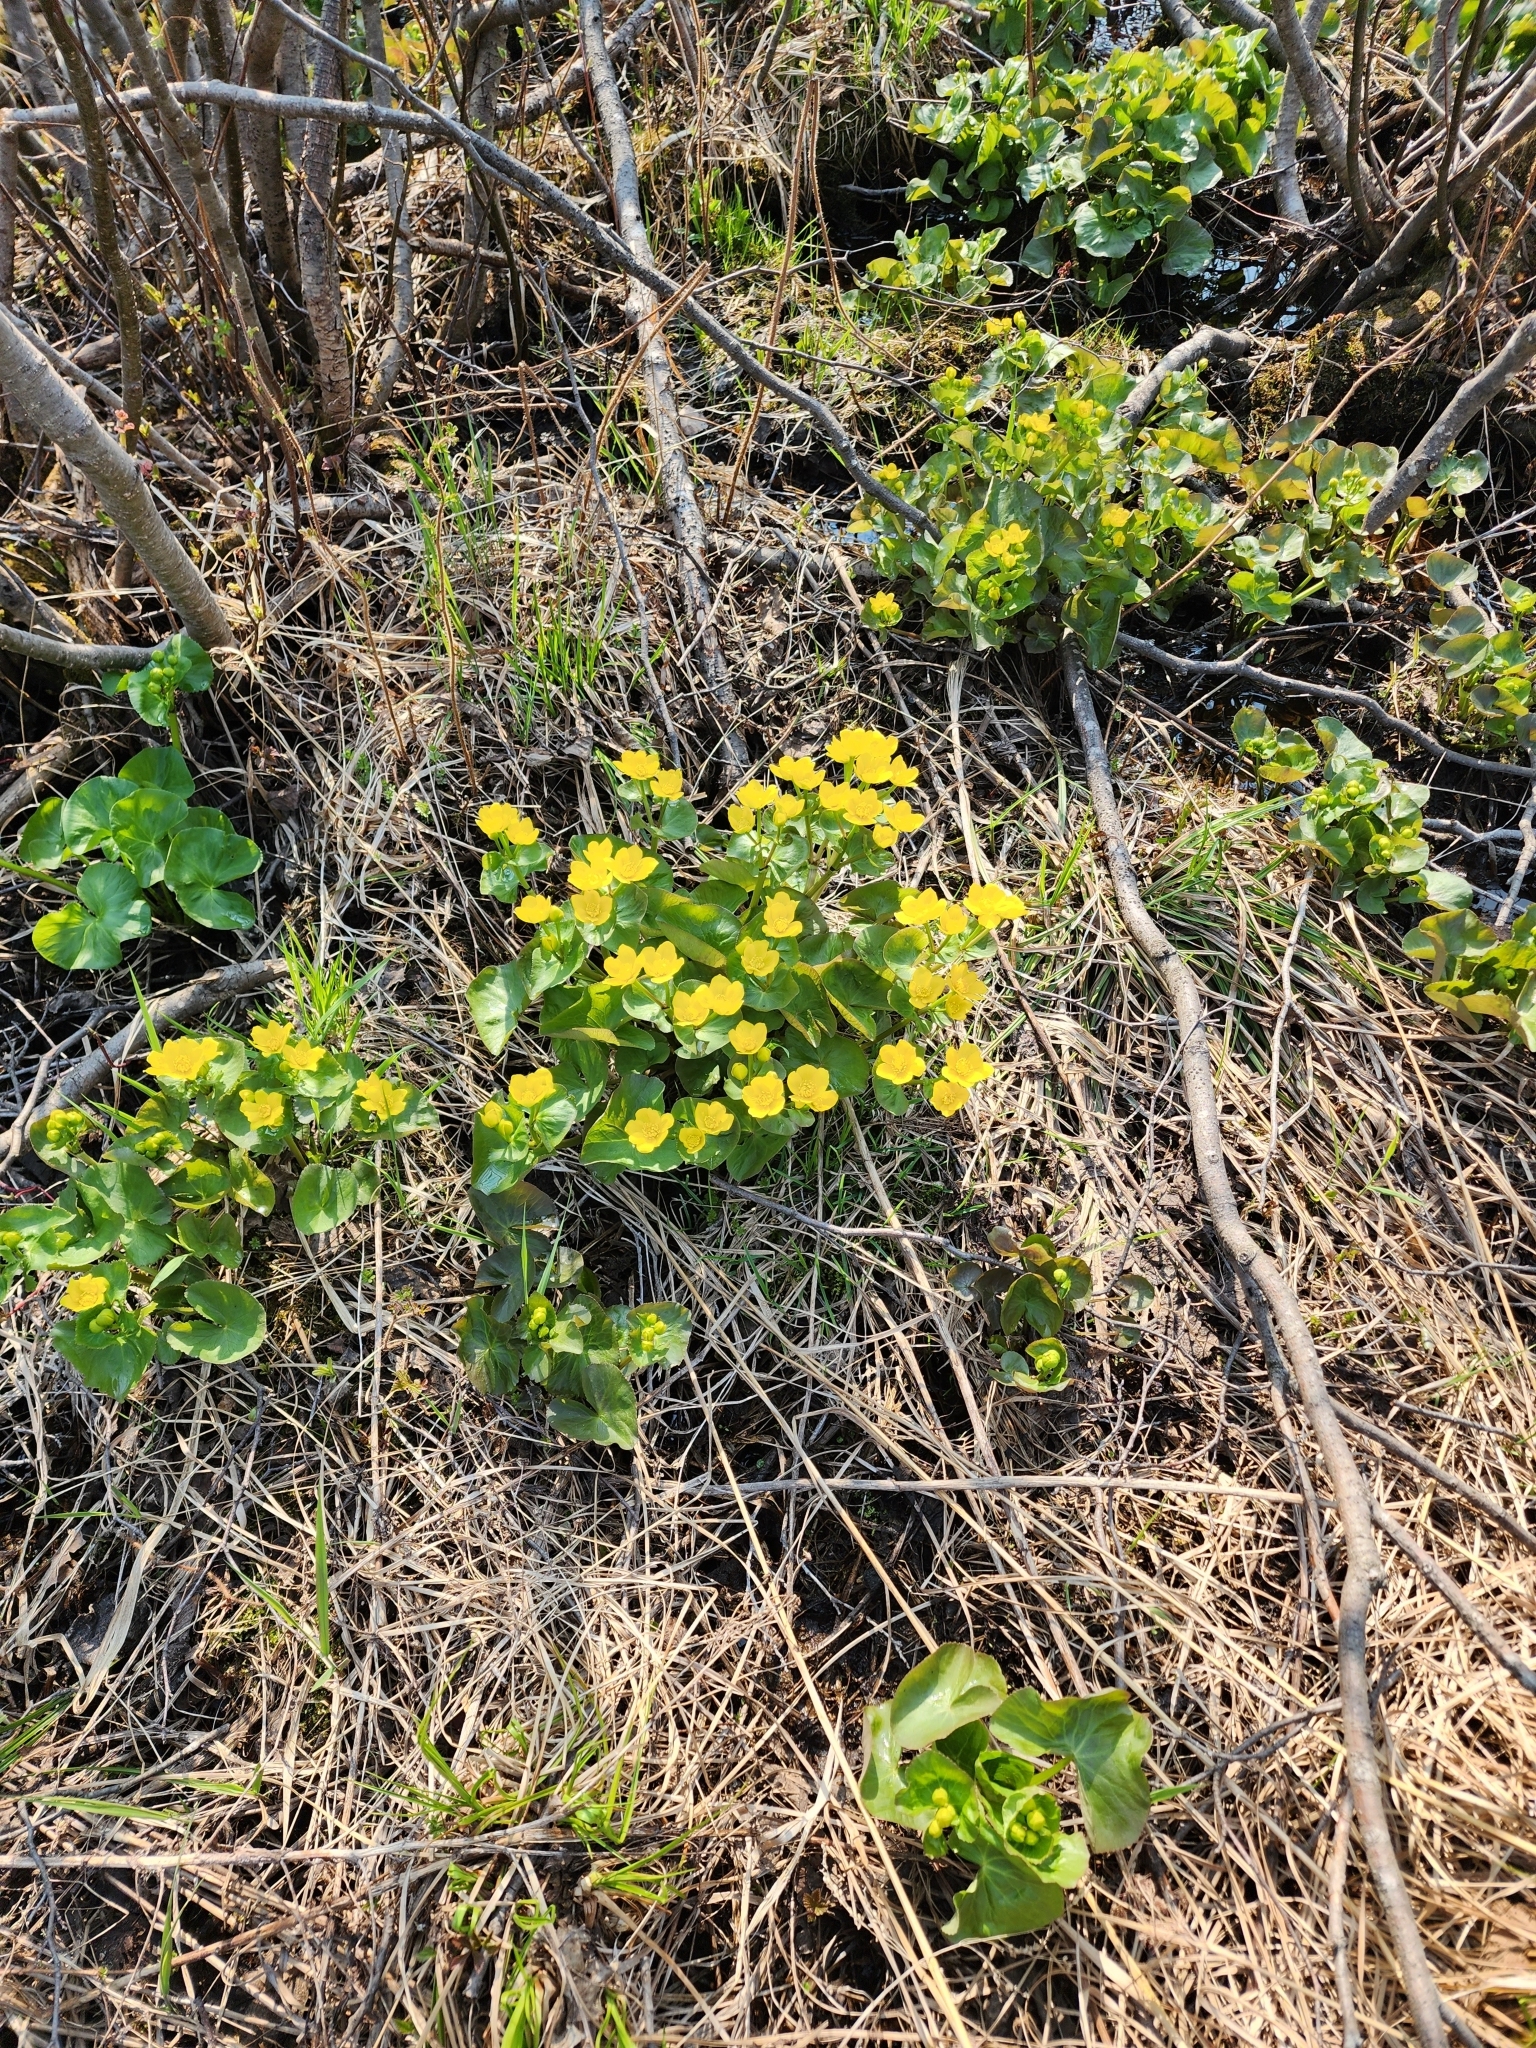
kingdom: Plantae
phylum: Tracheophyta
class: Magnoliopsida
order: Ranunculales
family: Ranunculaceae
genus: Caltha
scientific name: Caltha palustris
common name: Marsh marigold
